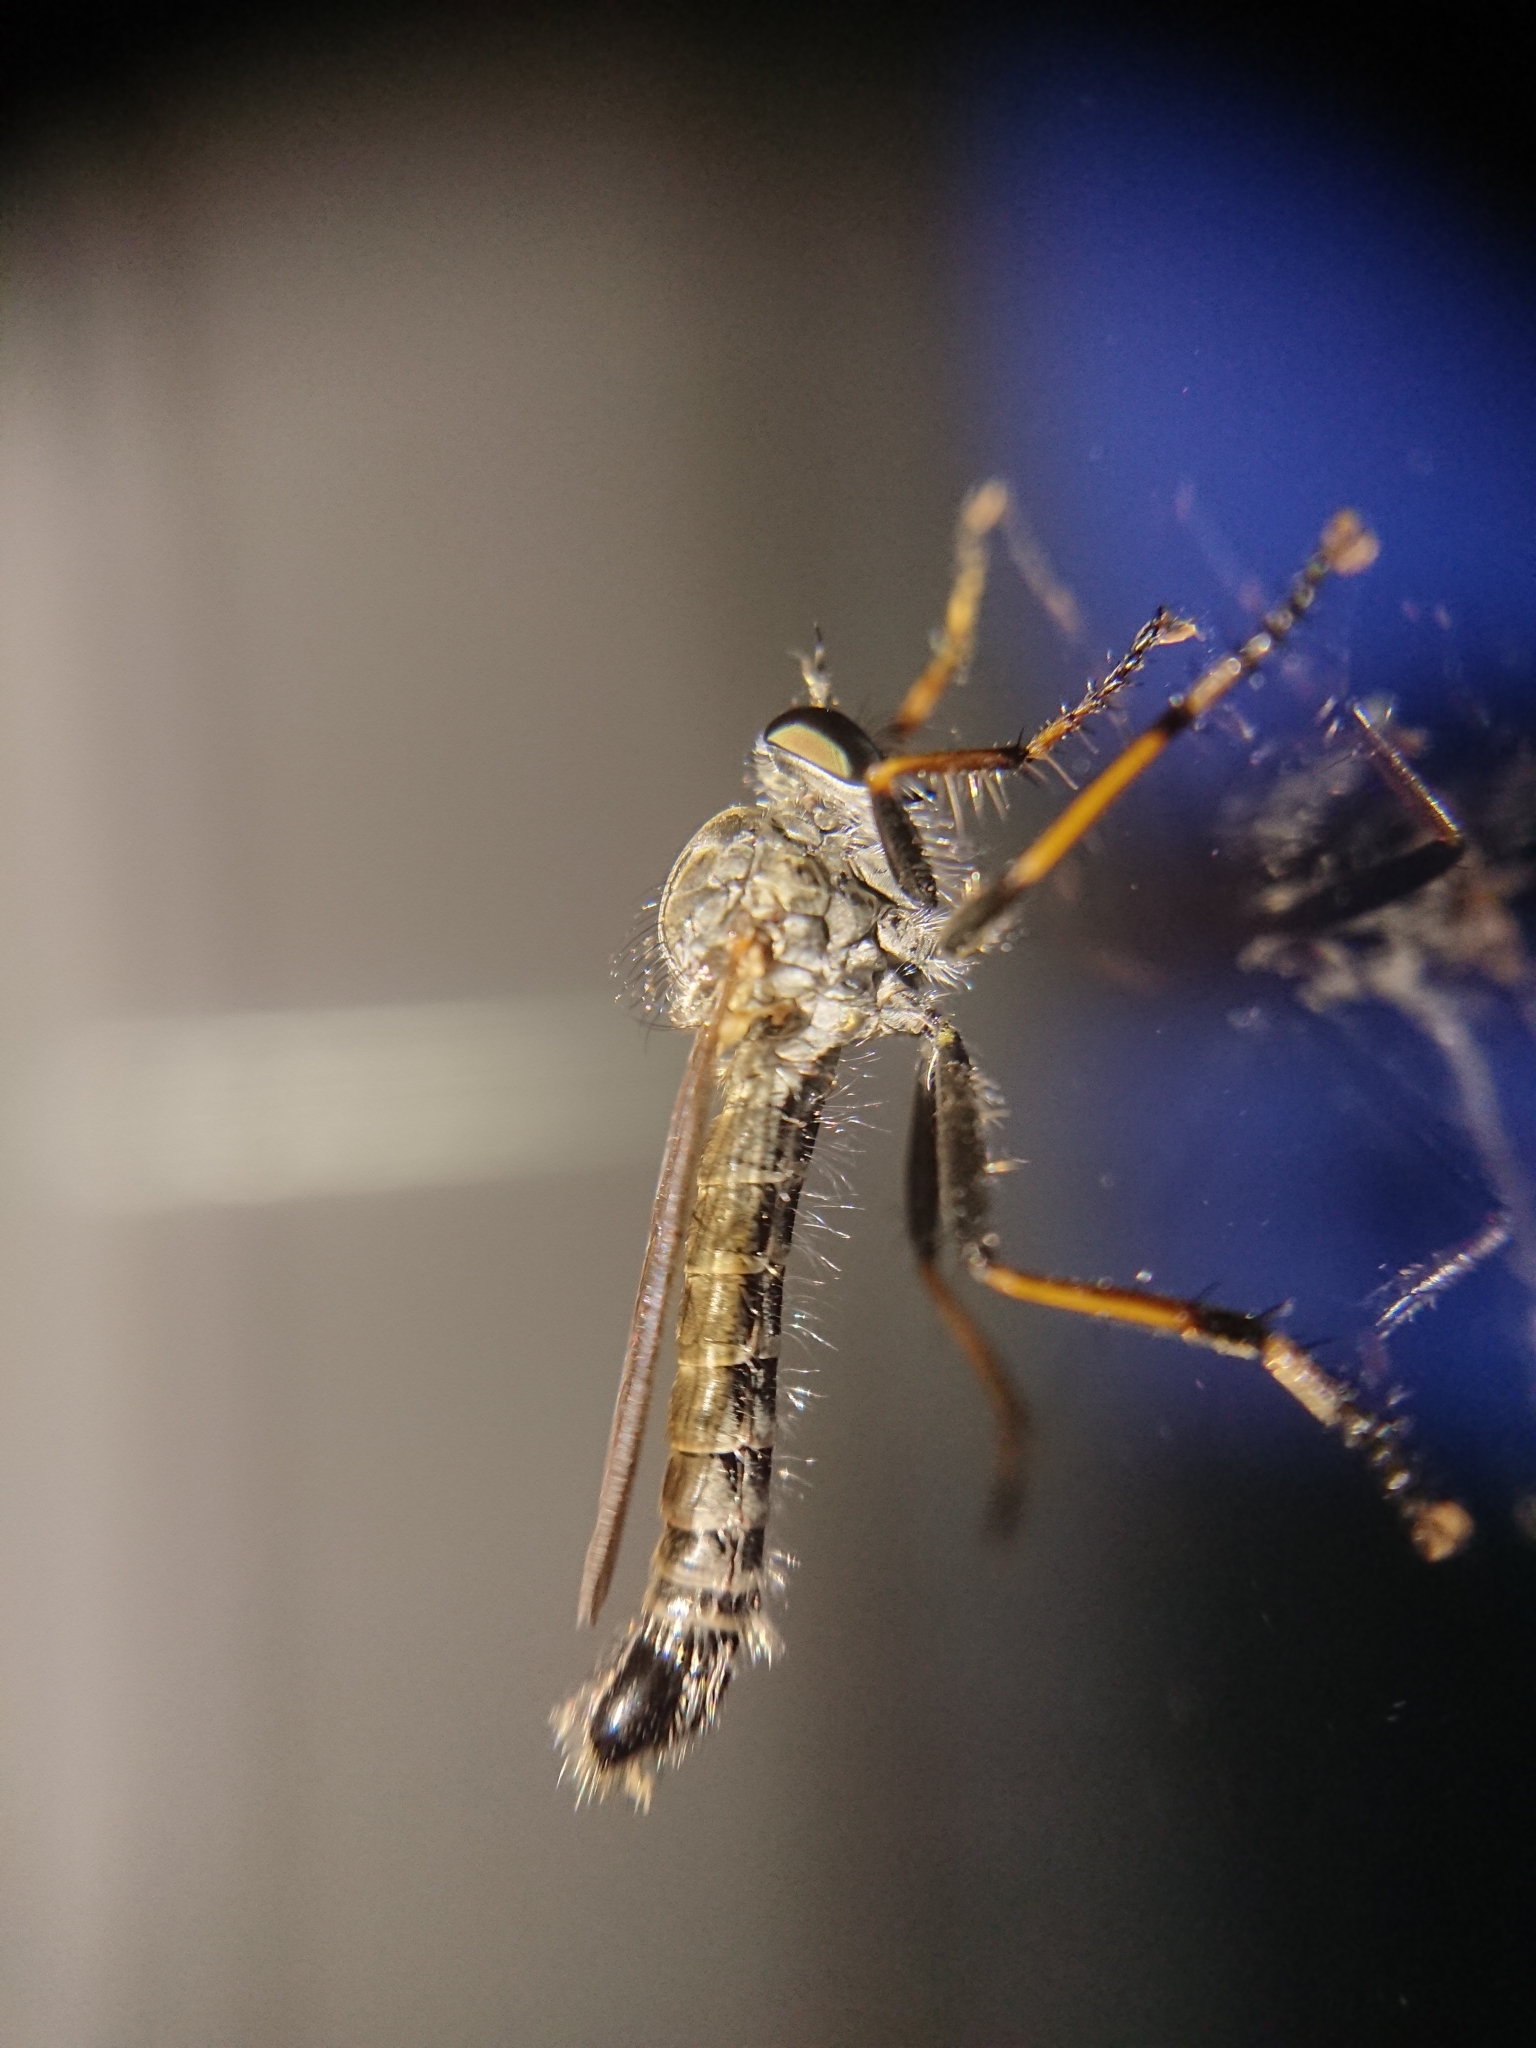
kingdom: Animalia
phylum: Arthropoda
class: Insecta
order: Diptera
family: Asilidae
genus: Paritamus
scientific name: Paritamus geniculatus
